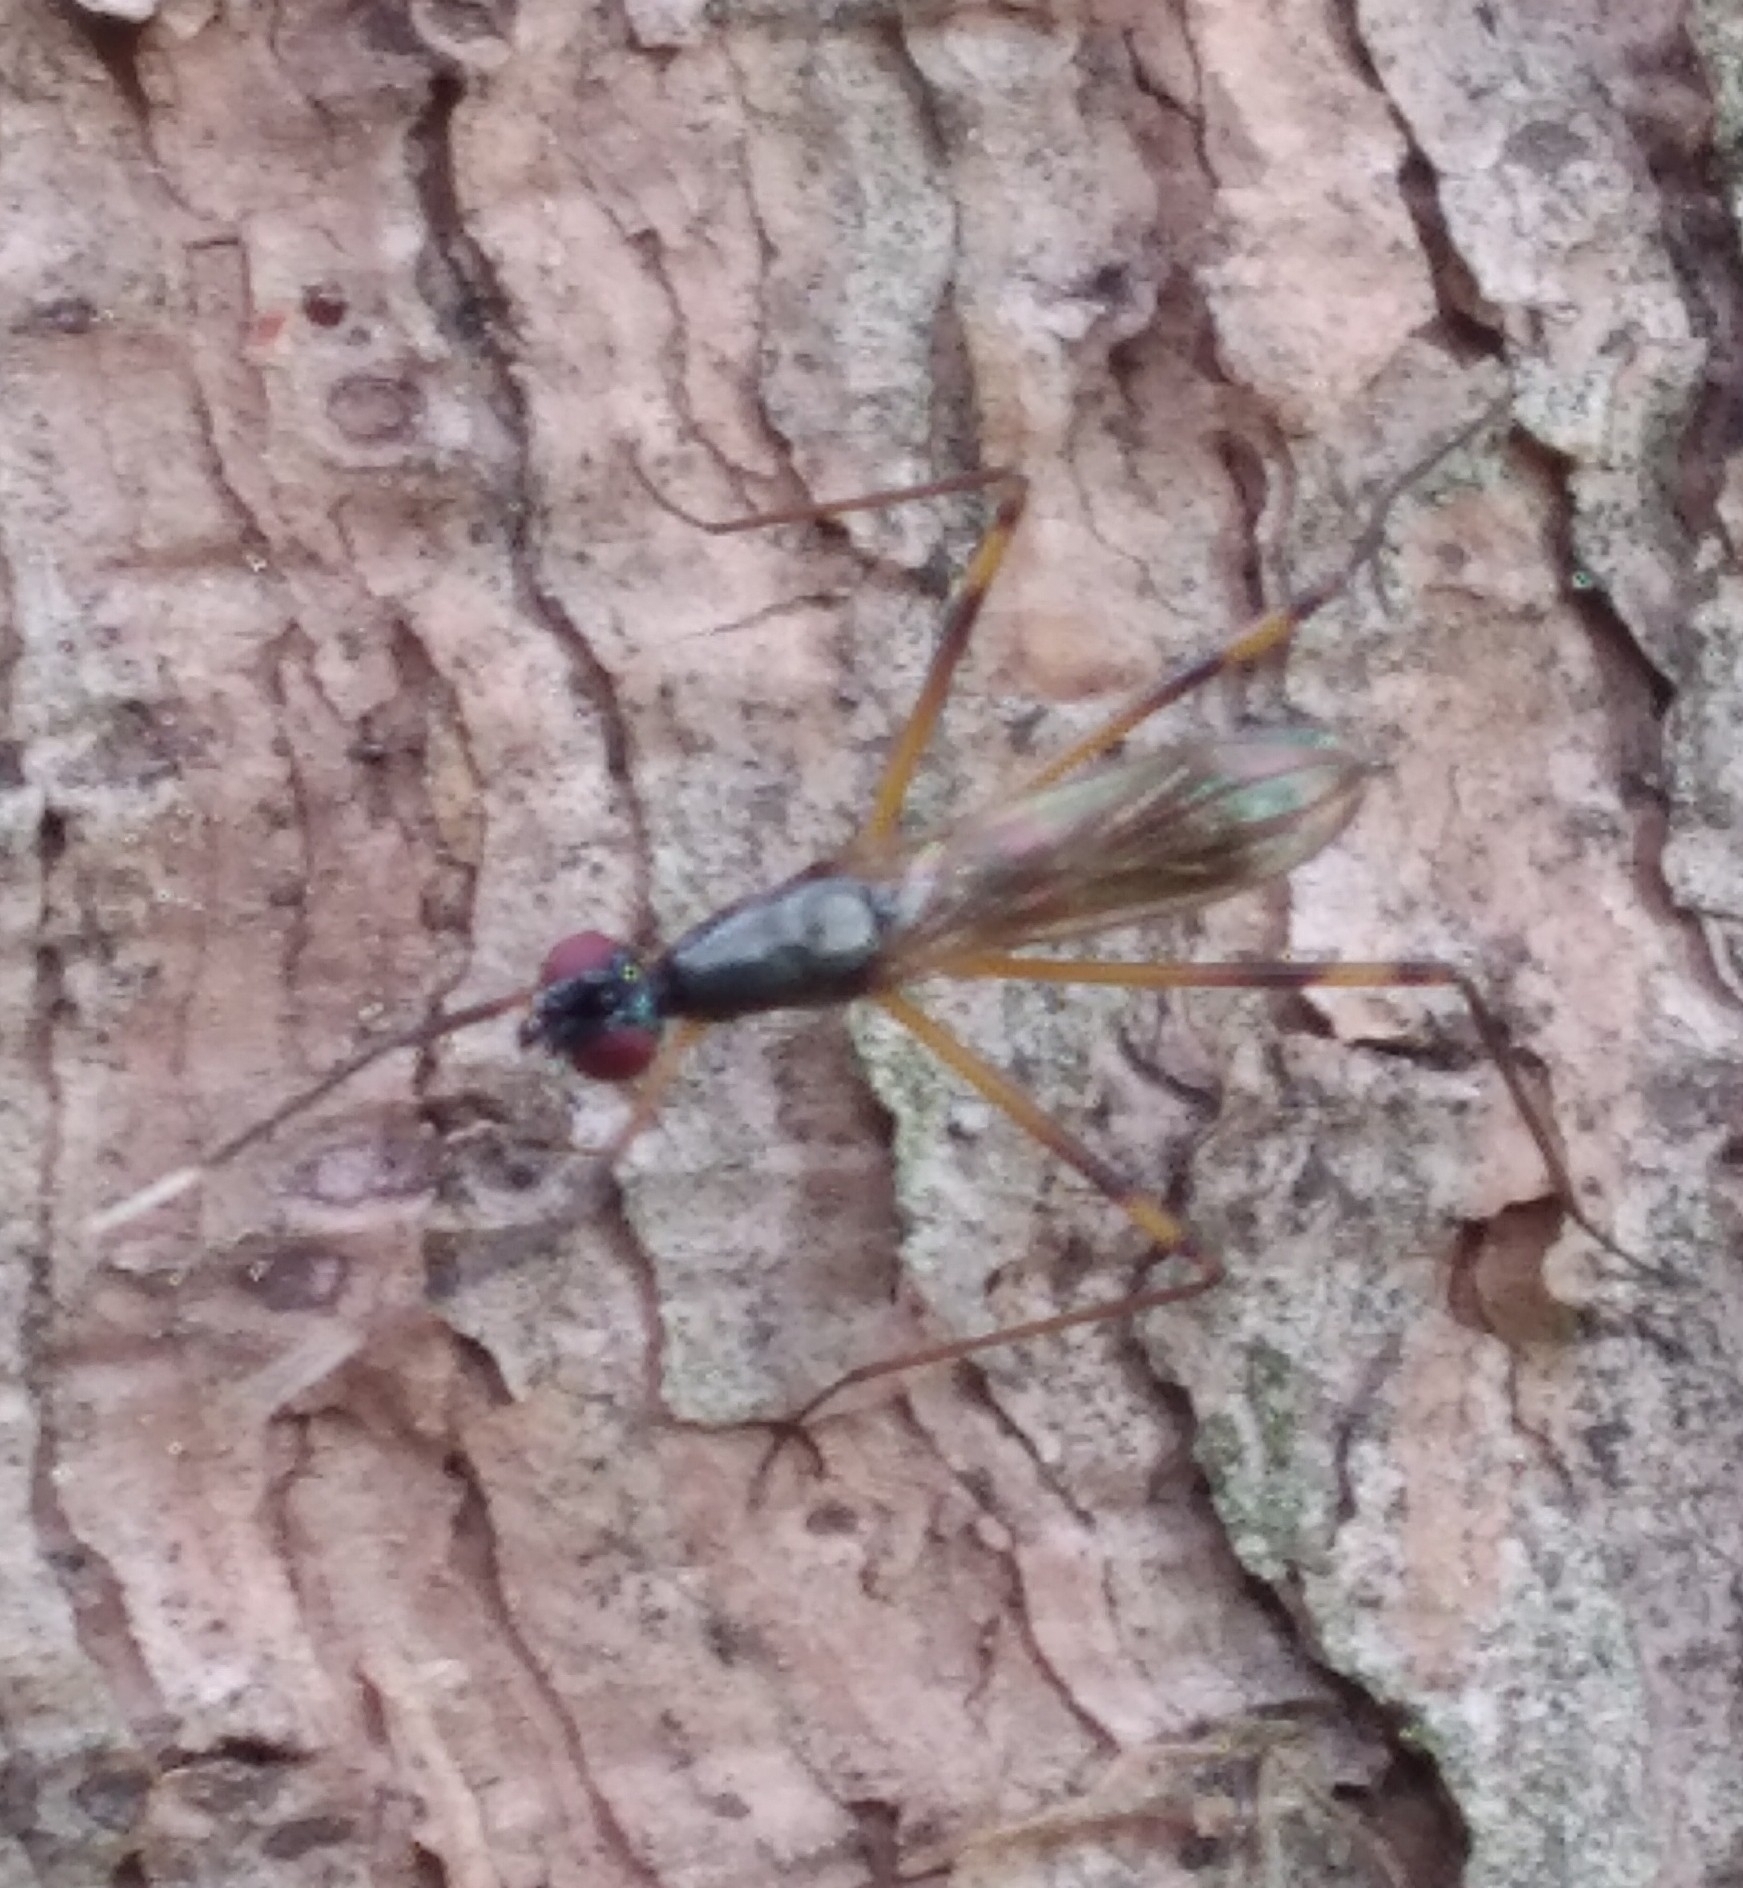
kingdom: Animalia
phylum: Arthropoda
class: Insecta
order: Diptera
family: Micropezidae
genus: Rainieria
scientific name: Rainieria antennaepes
